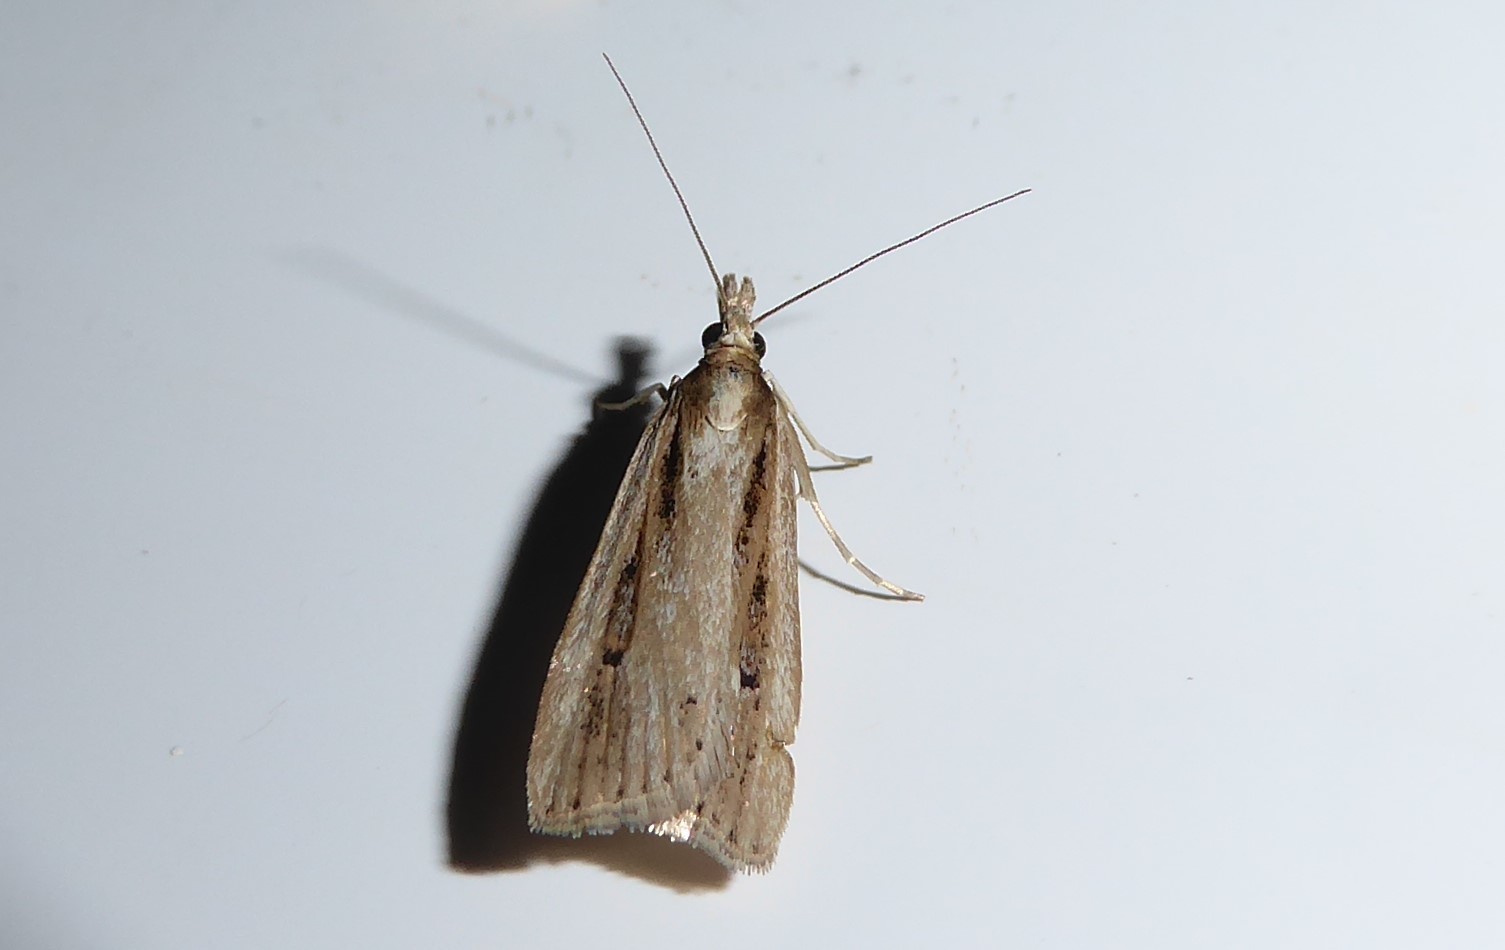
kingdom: Animalia
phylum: Arthropoda
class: Insecta
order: Lepidoptera
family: Crambidae
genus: Eudonia
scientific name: Eudonia sabulosella
